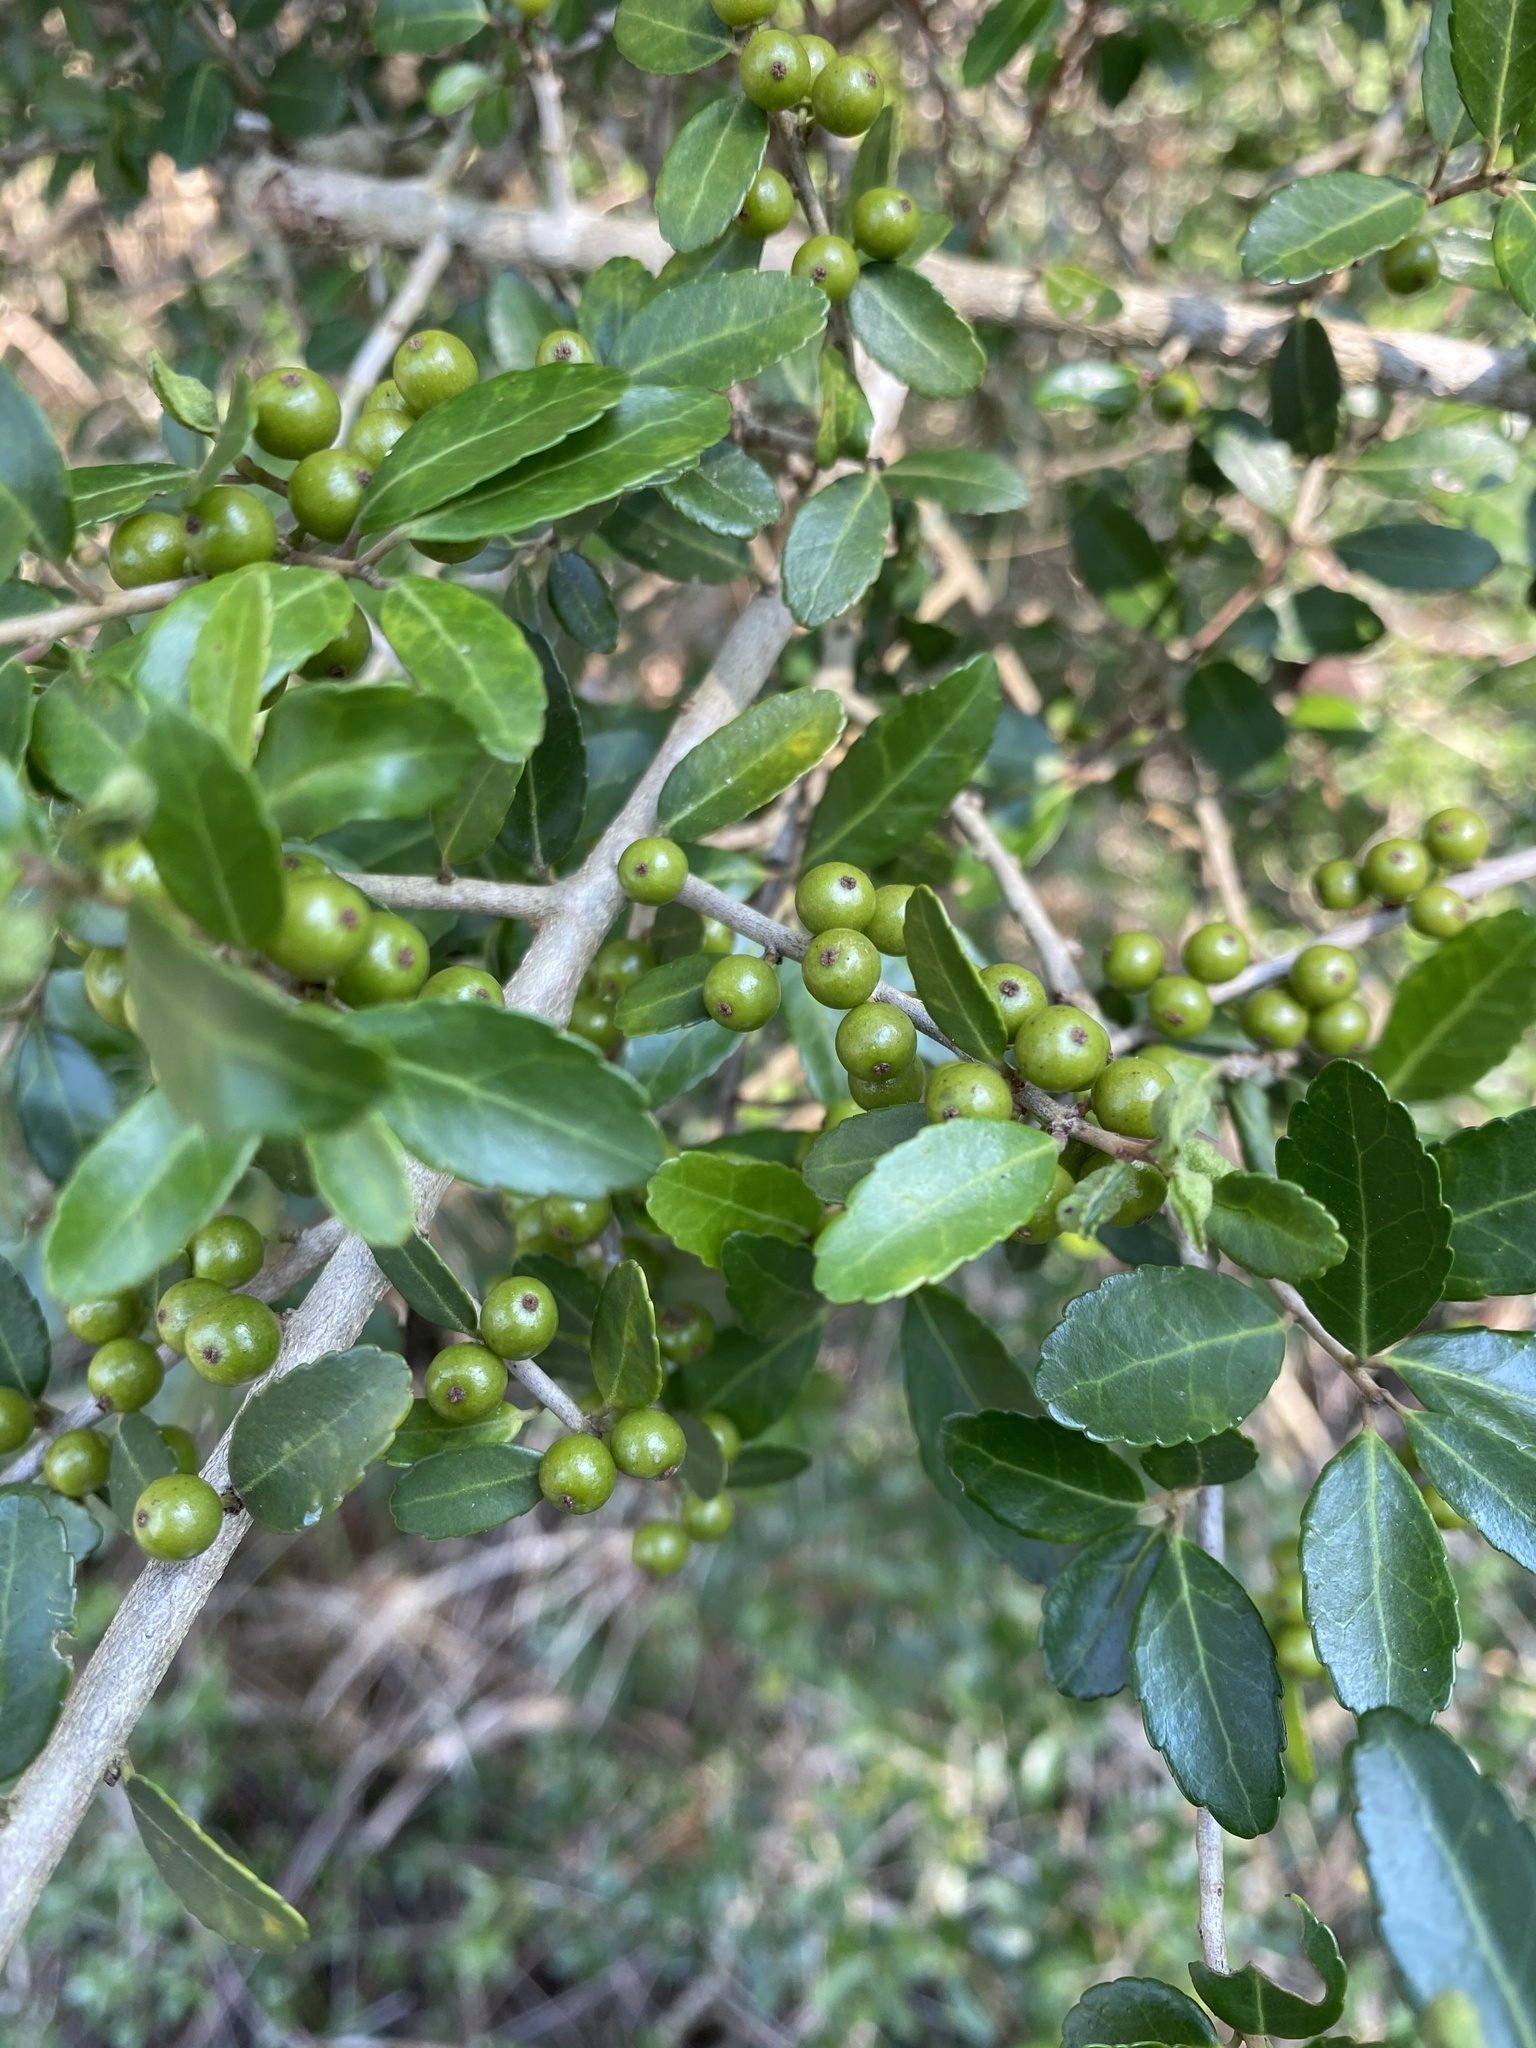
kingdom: Plantae
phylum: Tracheophyta
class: Magnoliopsida
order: Aquifoliales
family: Aquifoliaceae
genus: Ilex
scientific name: Ilex vomitoria
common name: Yaupon holly
